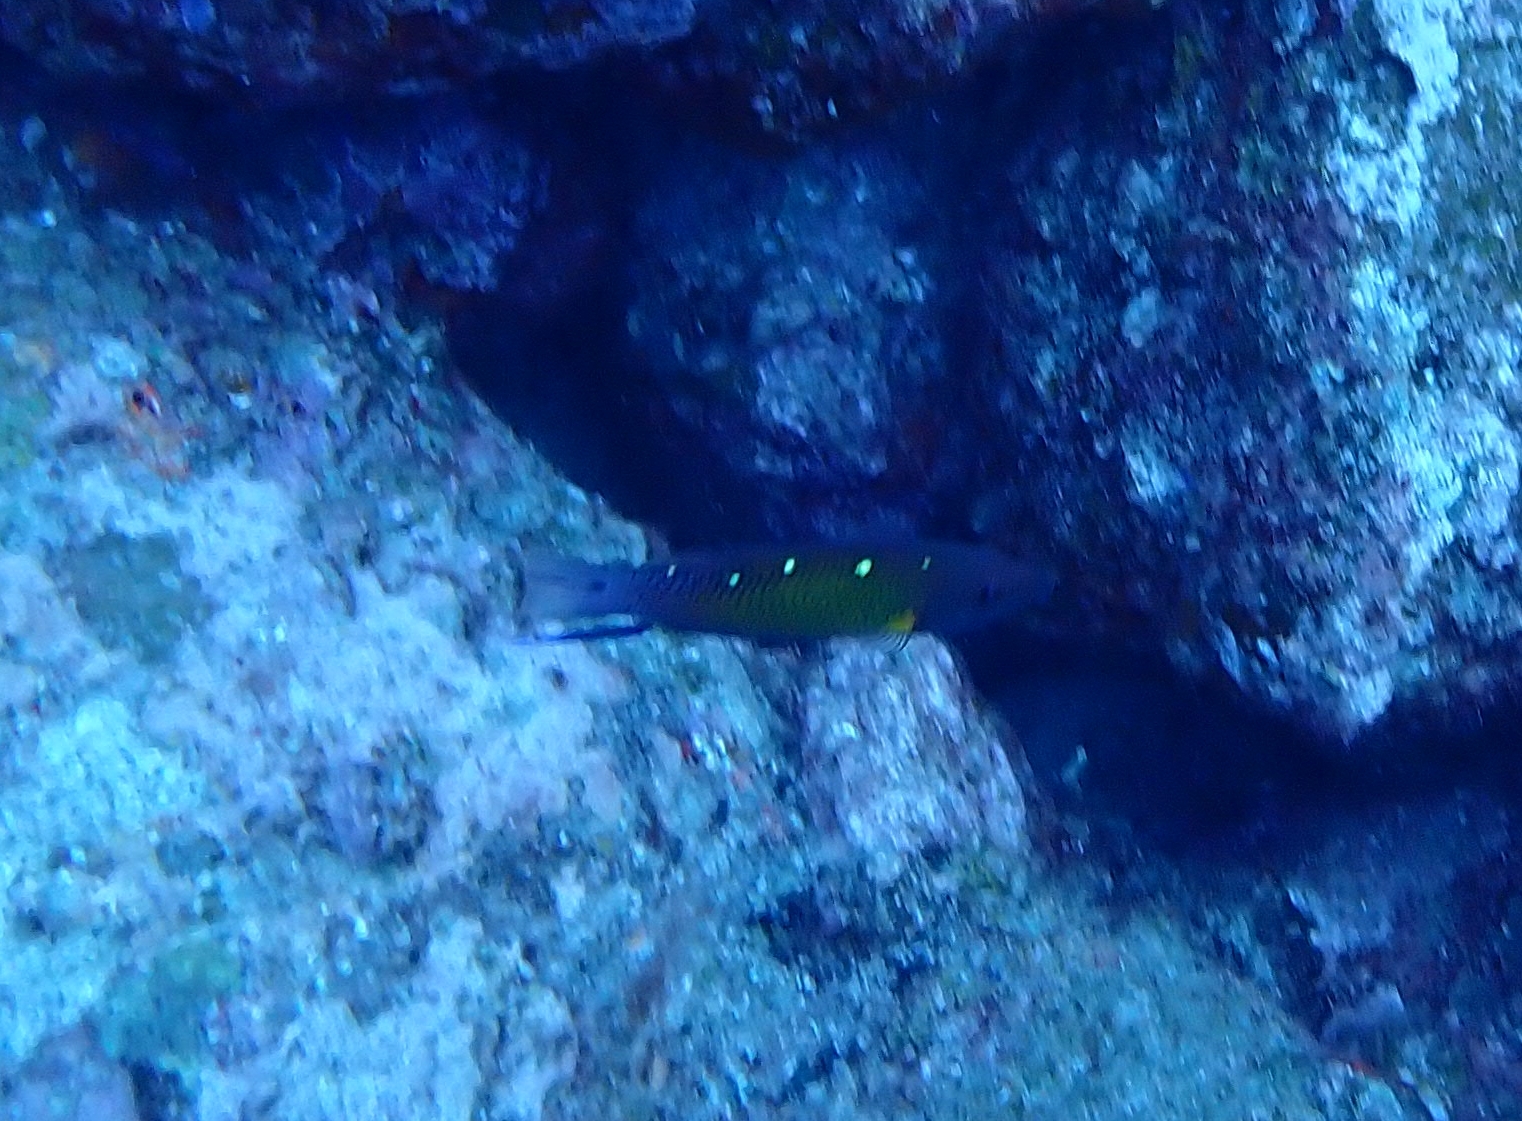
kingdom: Animalia
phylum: Chordata
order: Perciformes
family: Labridae
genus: Bodianus
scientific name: Bodianus diana
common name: Diana's hogfish
